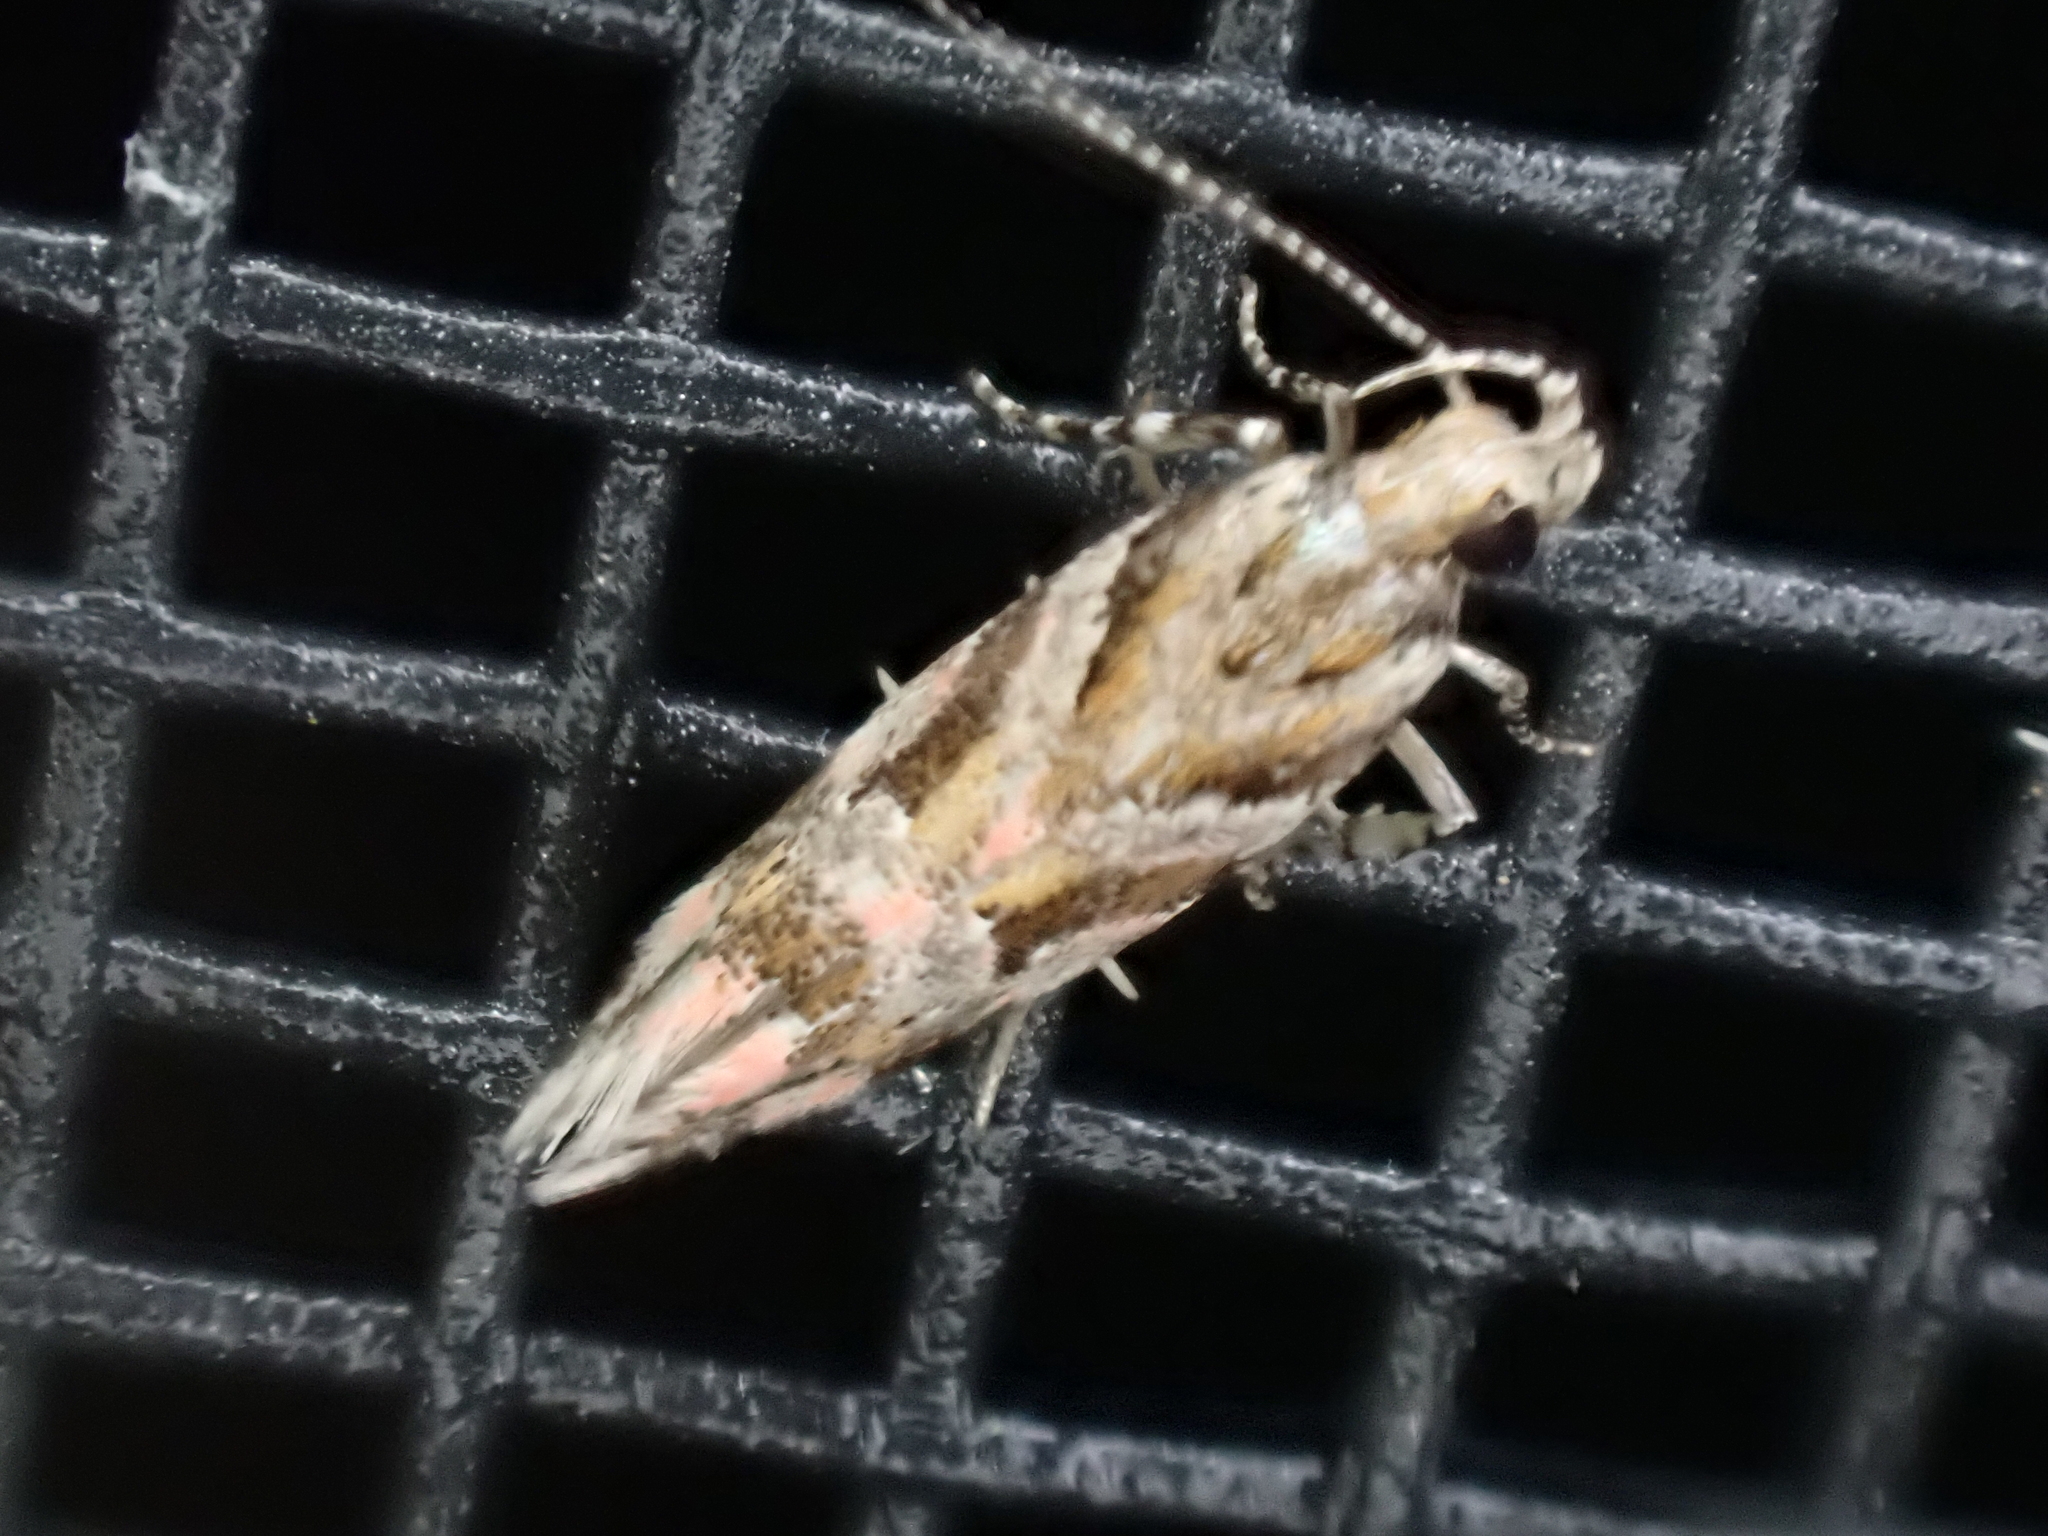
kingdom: Animalia
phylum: Arthropoda
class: Insecta
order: Lepidoptera
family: Gelechiidae
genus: Aristotelia
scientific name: Aristotelia roseosuffusella
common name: Pink-washed aristotelia moth
